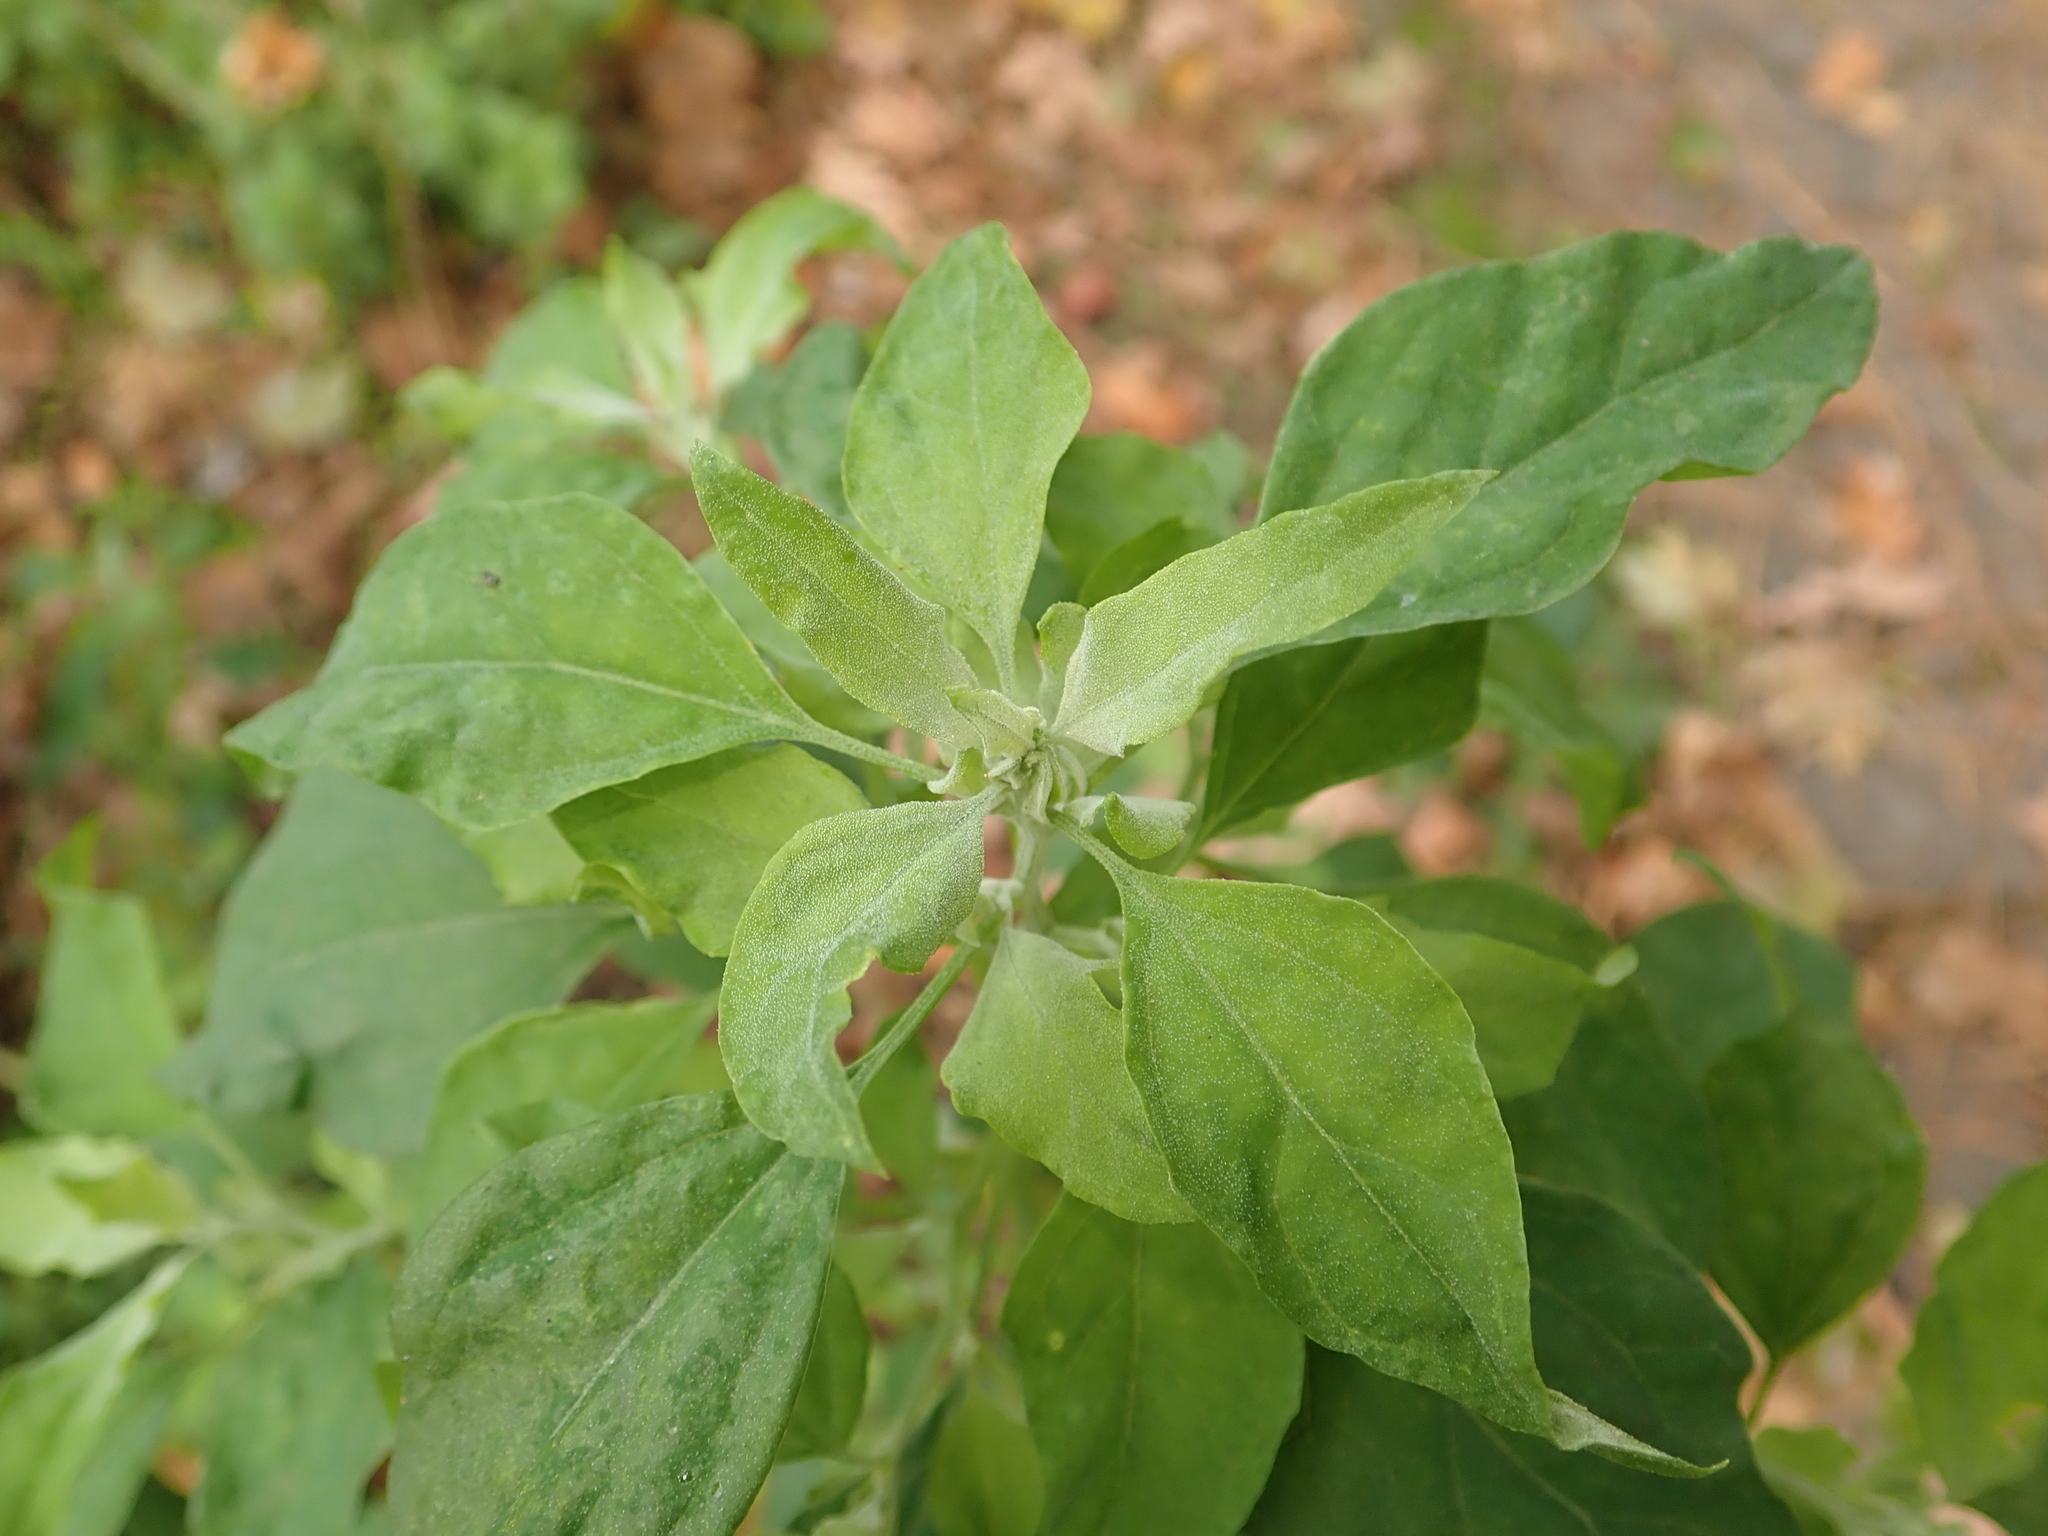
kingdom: Plantae
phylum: Tracheophyta
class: Magnoliopsida
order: Caryophyllales
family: Amaranthaceae
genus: Chenopodium
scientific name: Chenopodium album
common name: Fat-hen
